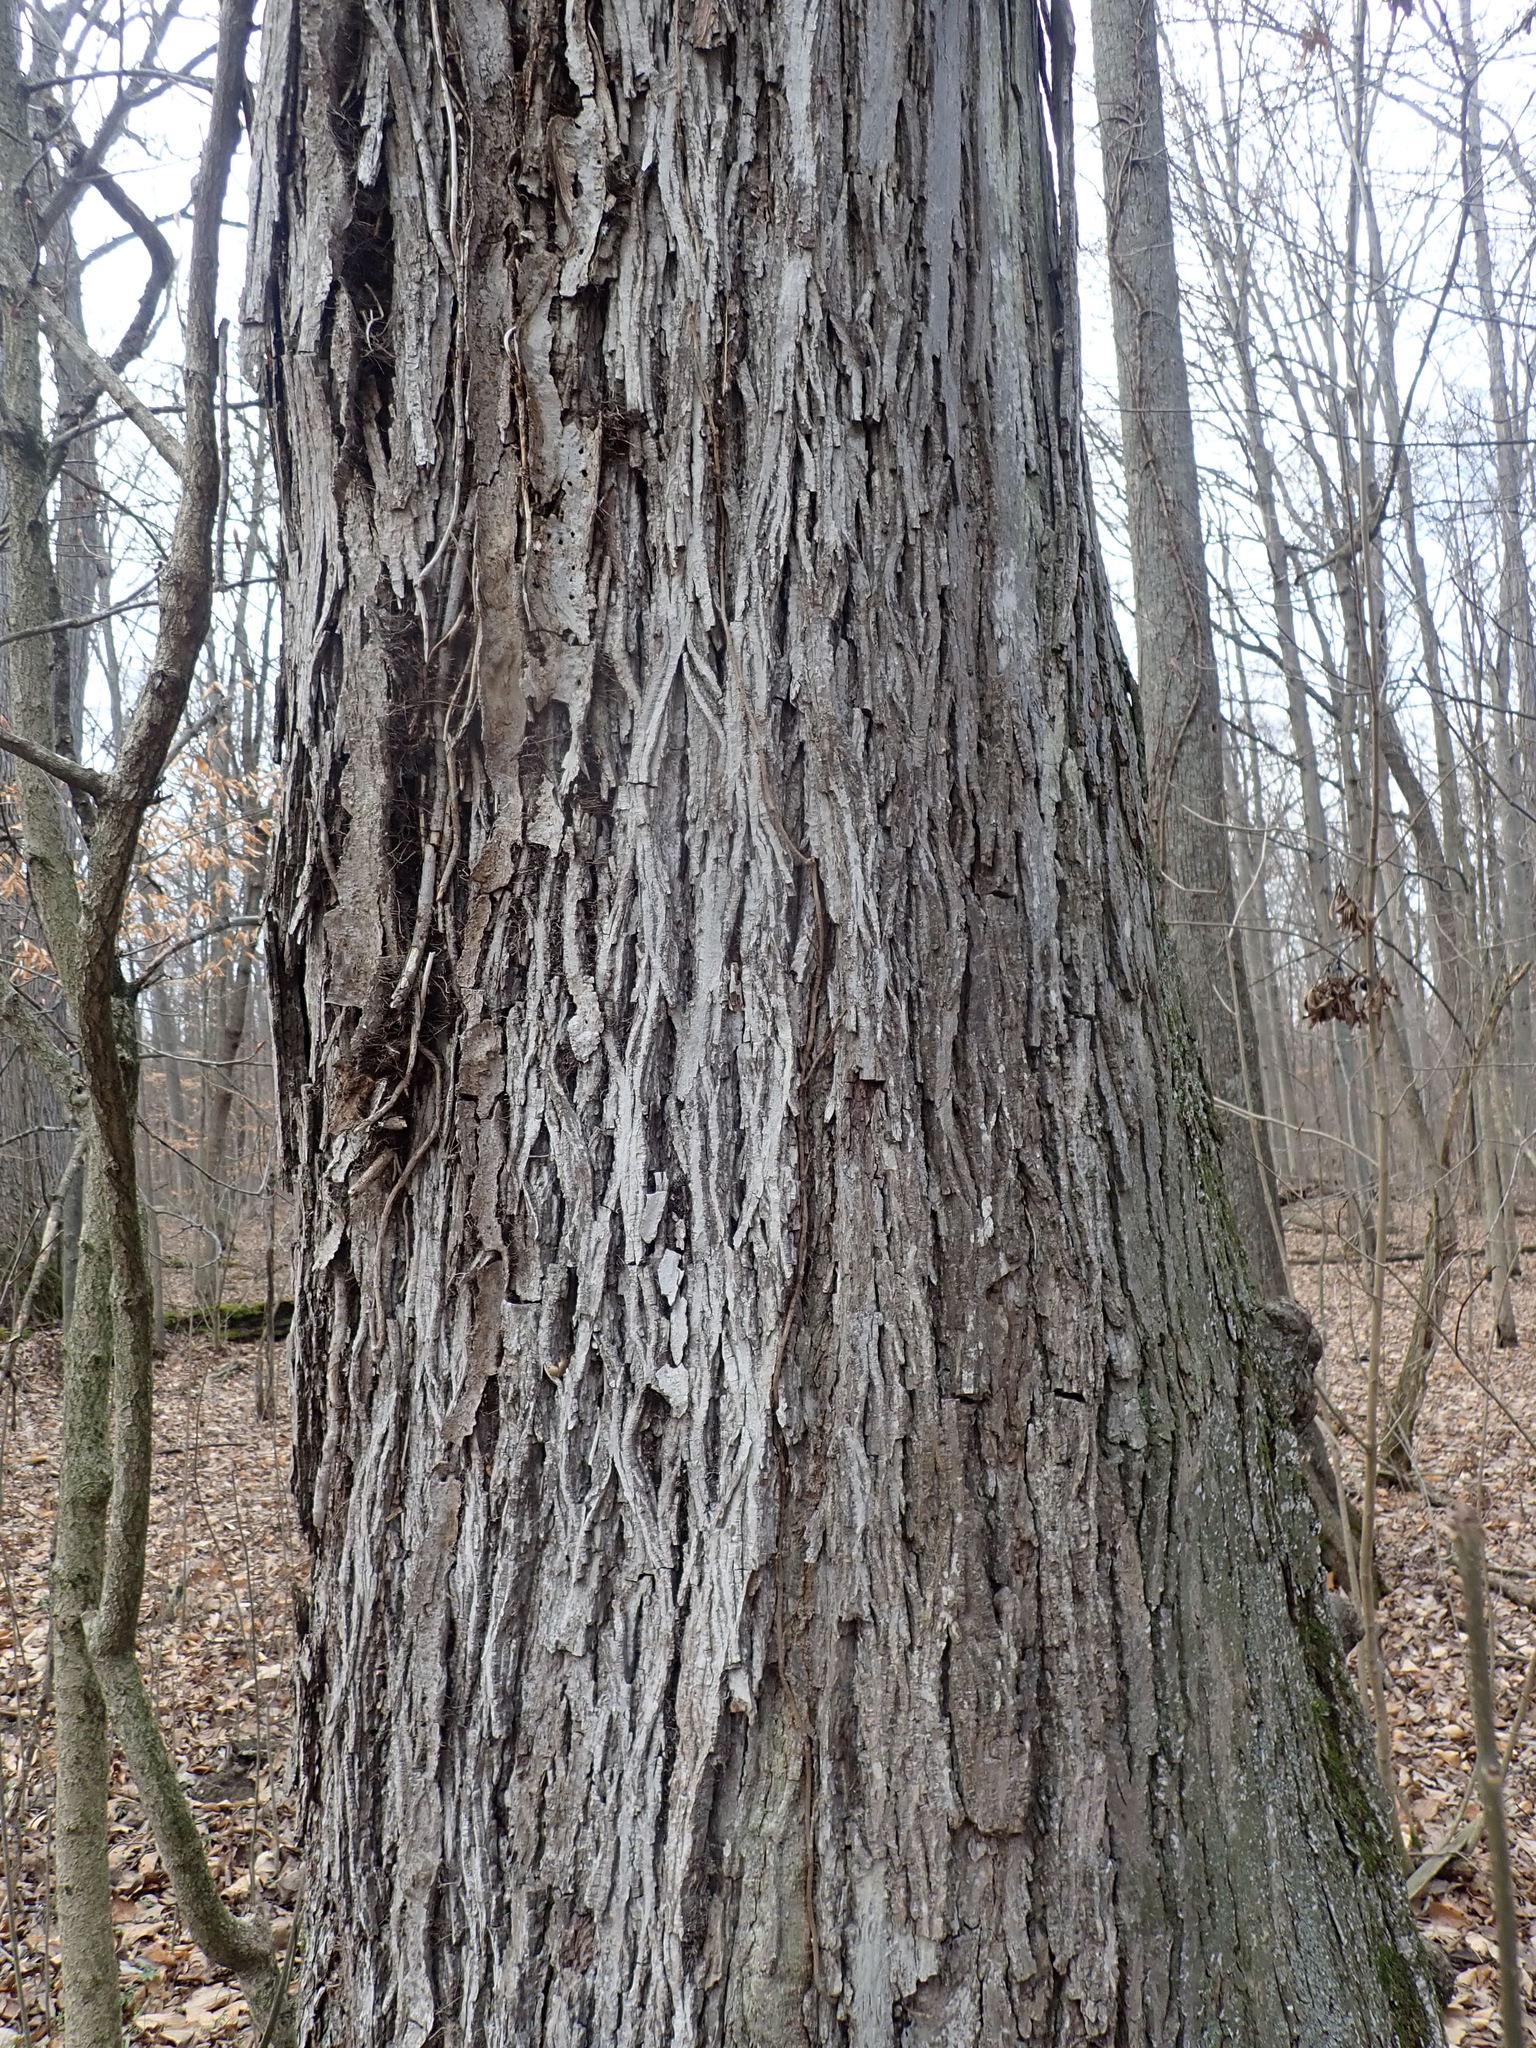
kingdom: Plantae
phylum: Tracheophyta
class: Magnoliopsida
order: Fagales
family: Juglandaceae
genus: Carya
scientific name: Carya ovata
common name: Shagbark hickory
